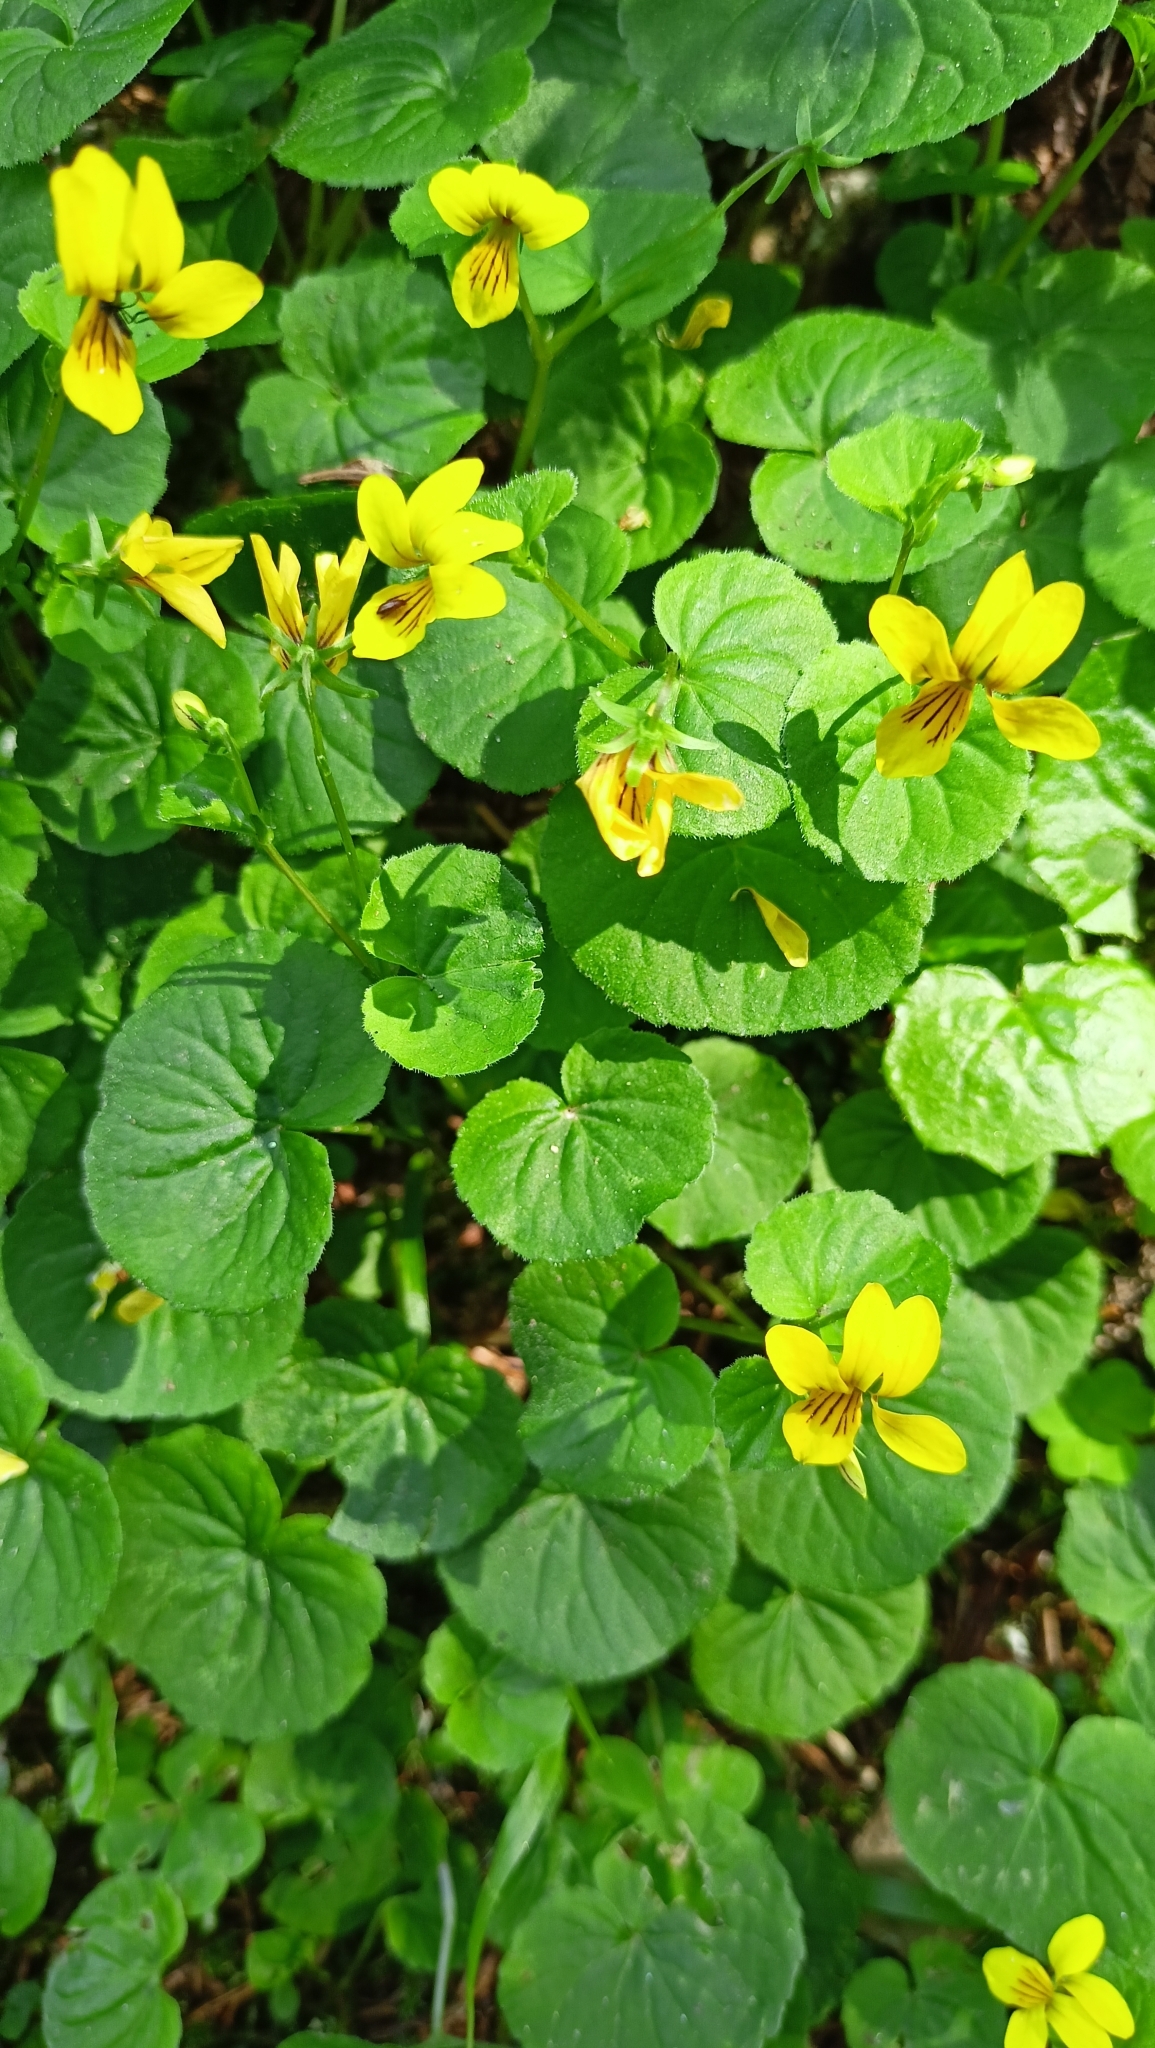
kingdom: Plantae
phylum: Tracheophyta
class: Magnoliopsida
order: Malpighiales
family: Violaceae
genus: Viola
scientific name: Viola biflora
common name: Alpine yellow violet
